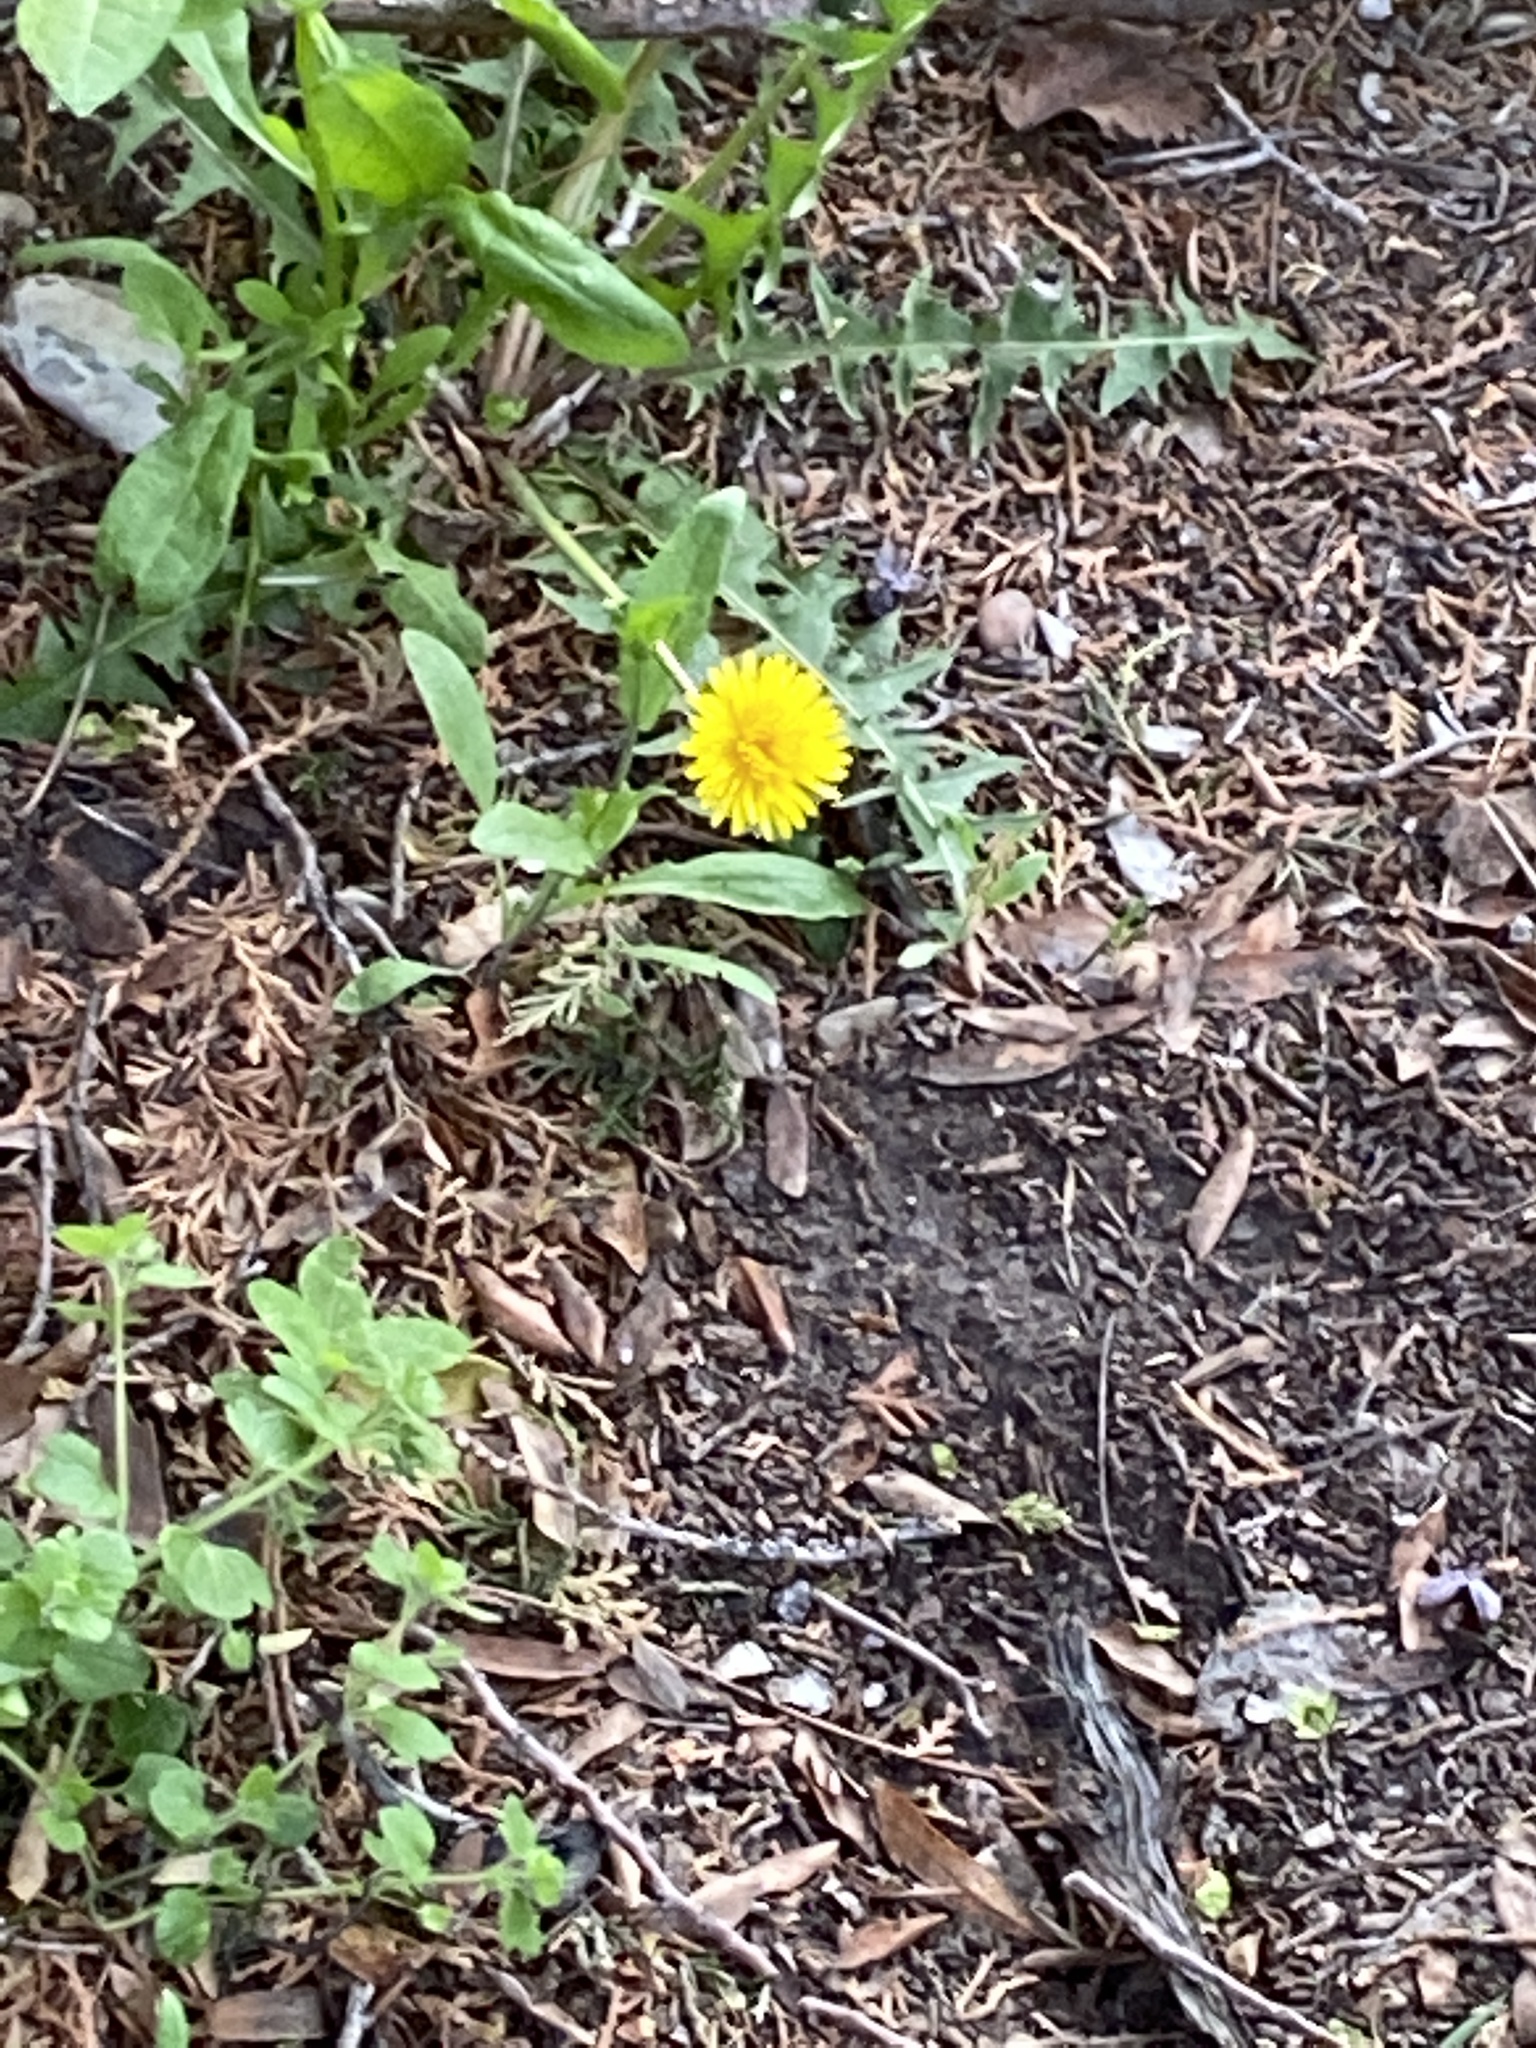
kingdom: Plantae
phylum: Tracheophyta
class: Magnoliopsida
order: Asterales
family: Asteraceae
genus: Taraxacum
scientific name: Taraxacum officinale
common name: Common dandelion
